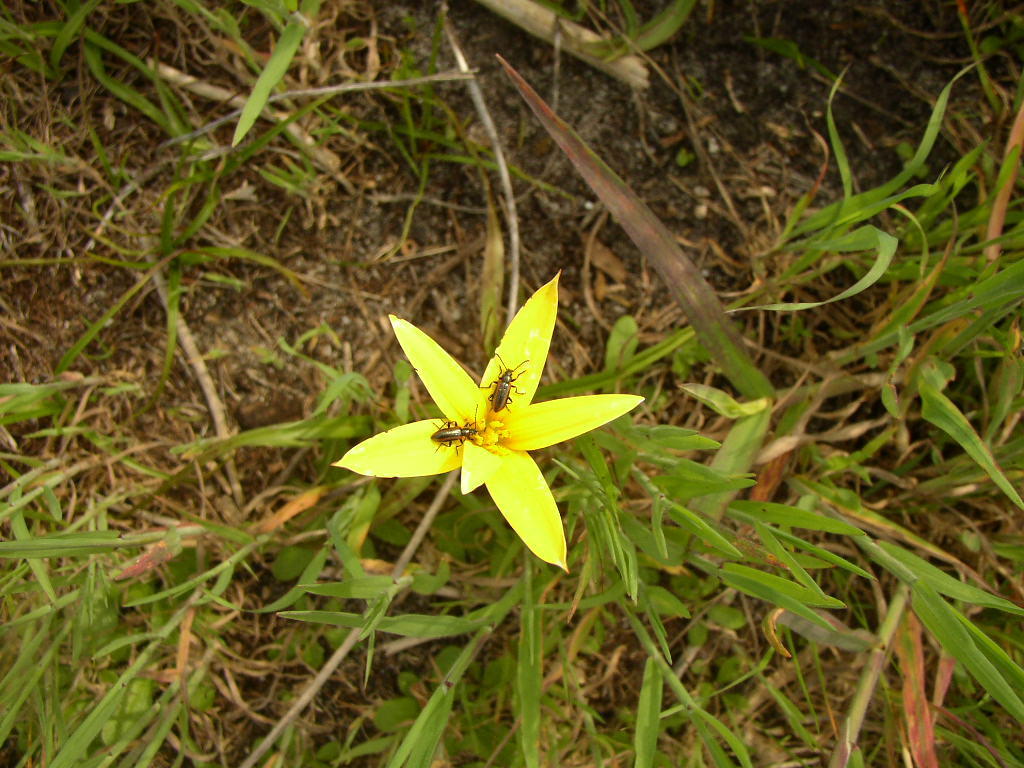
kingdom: Plantae
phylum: Tracheophyta
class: Liliopsida
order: Asparagales
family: Hypoxidaceae
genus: Pauridia
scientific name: Pauridia capensis
